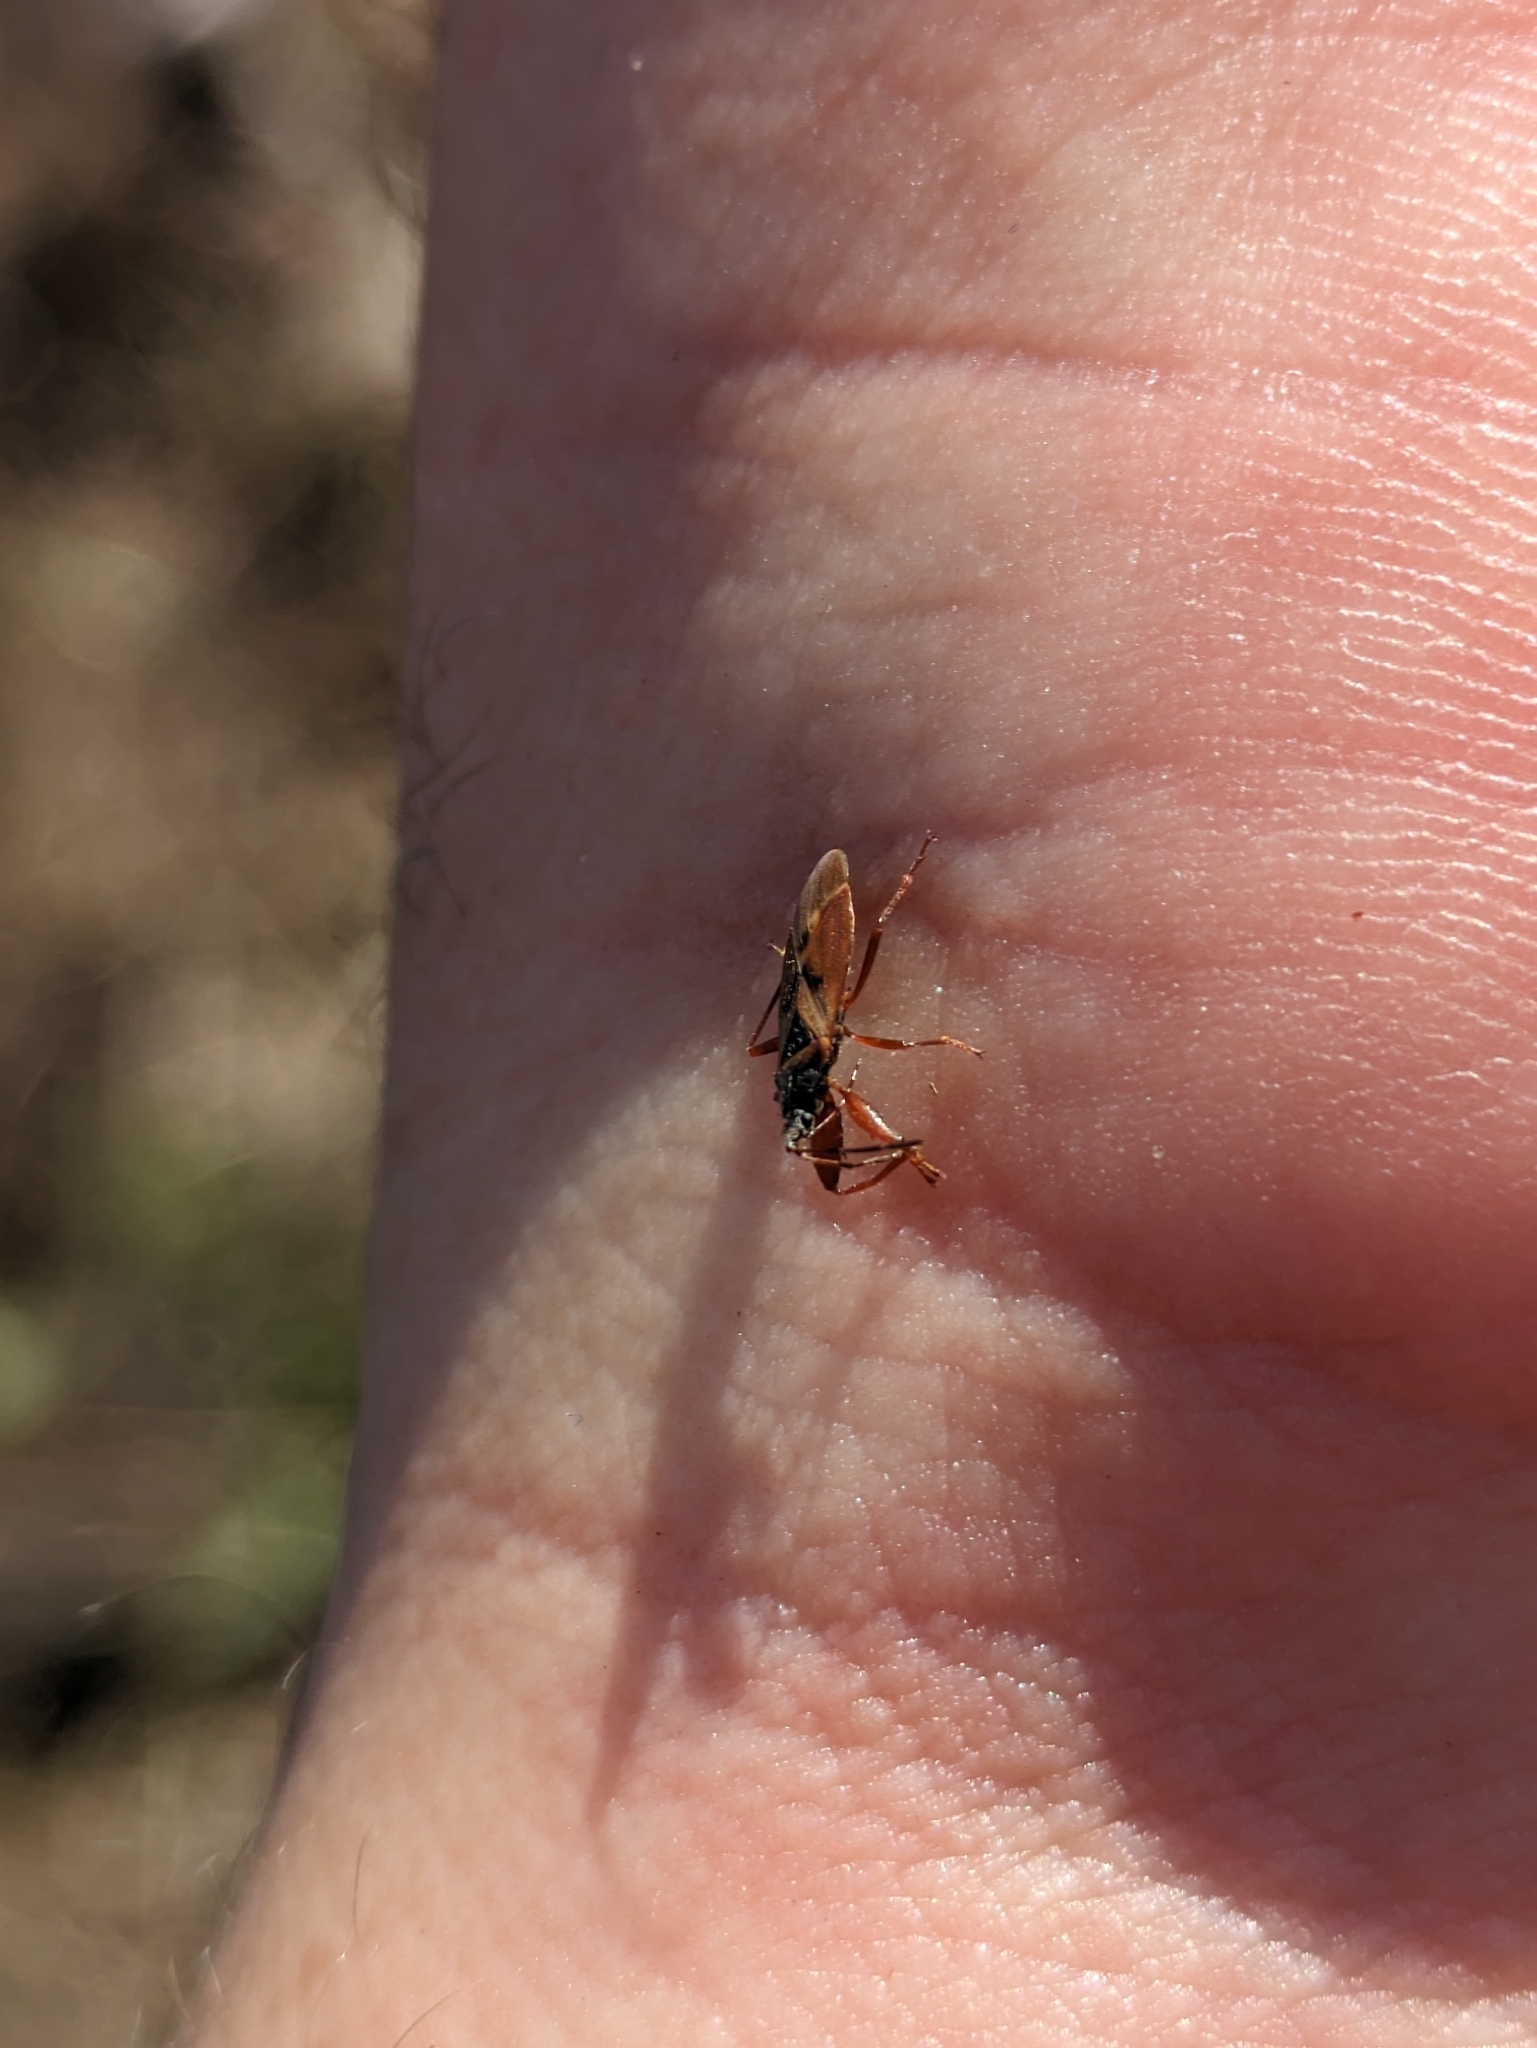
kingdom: Animalia
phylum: Arthropoda
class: Insecta
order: Hemiptera
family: Rhyparochromidae
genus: Gastrodes
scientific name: Gastrodes abietum
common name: Spruce cone bug
